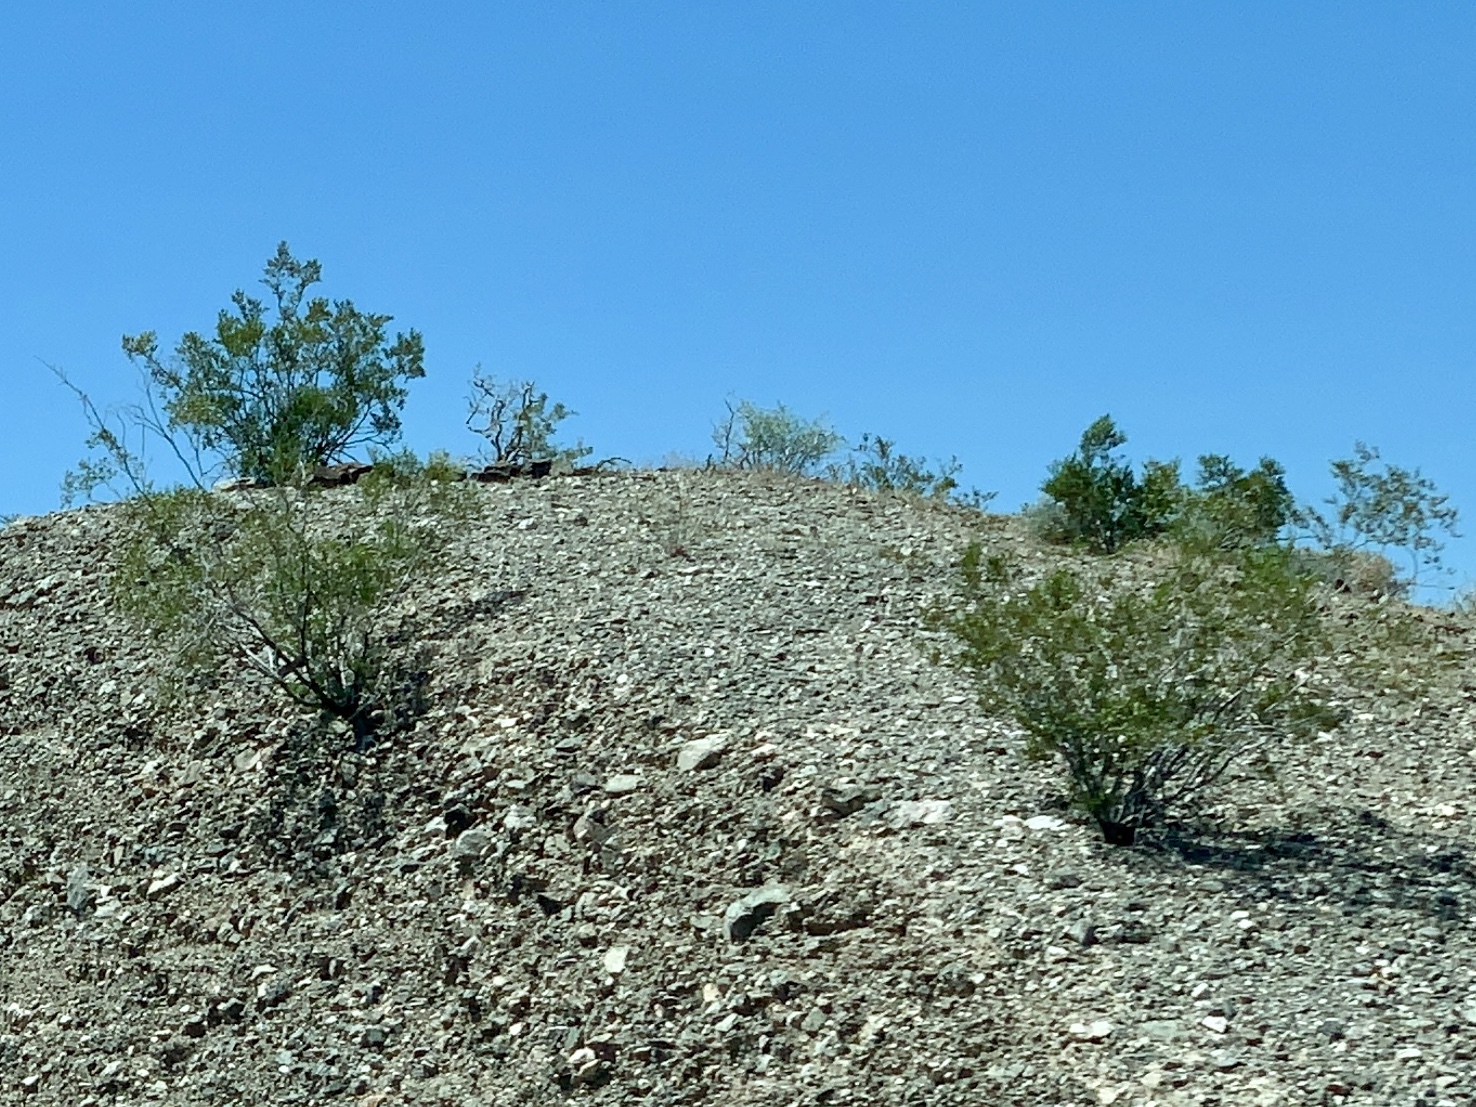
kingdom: Plantae
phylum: Tracheophyta
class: Magnoliopsida
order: Zygophyllales
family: Zygophyllaceae
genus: Larrea
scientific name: Larrea tridentata
